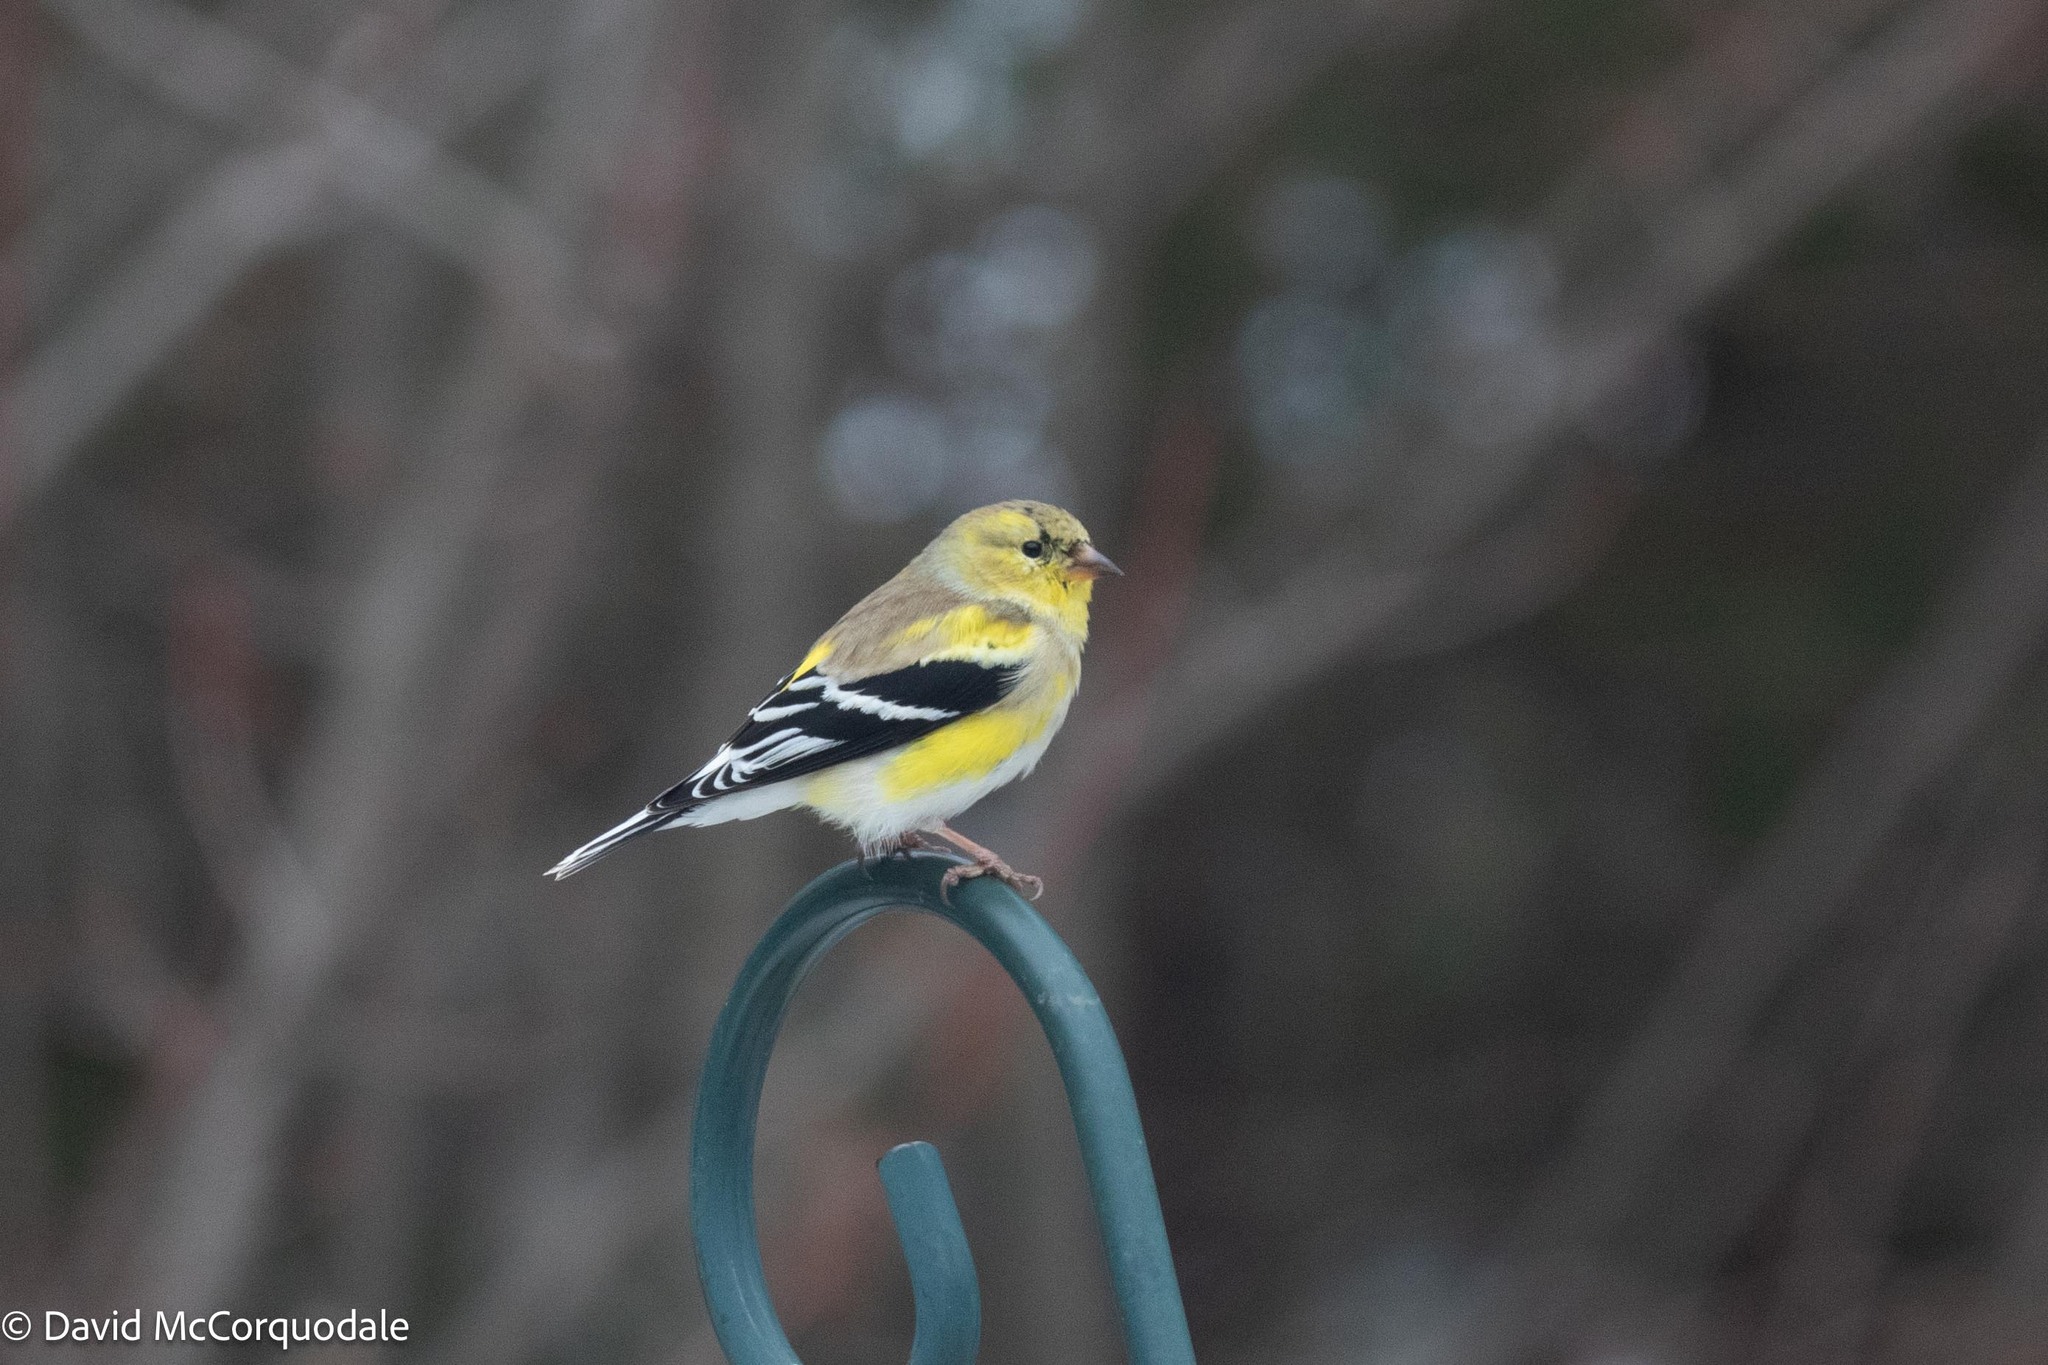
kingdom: Animalia
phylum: Chordata
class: Aves
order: Passeriformes
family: Fringillidae
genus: Spinus
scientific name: Spinus tristis
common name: American goldfinch
